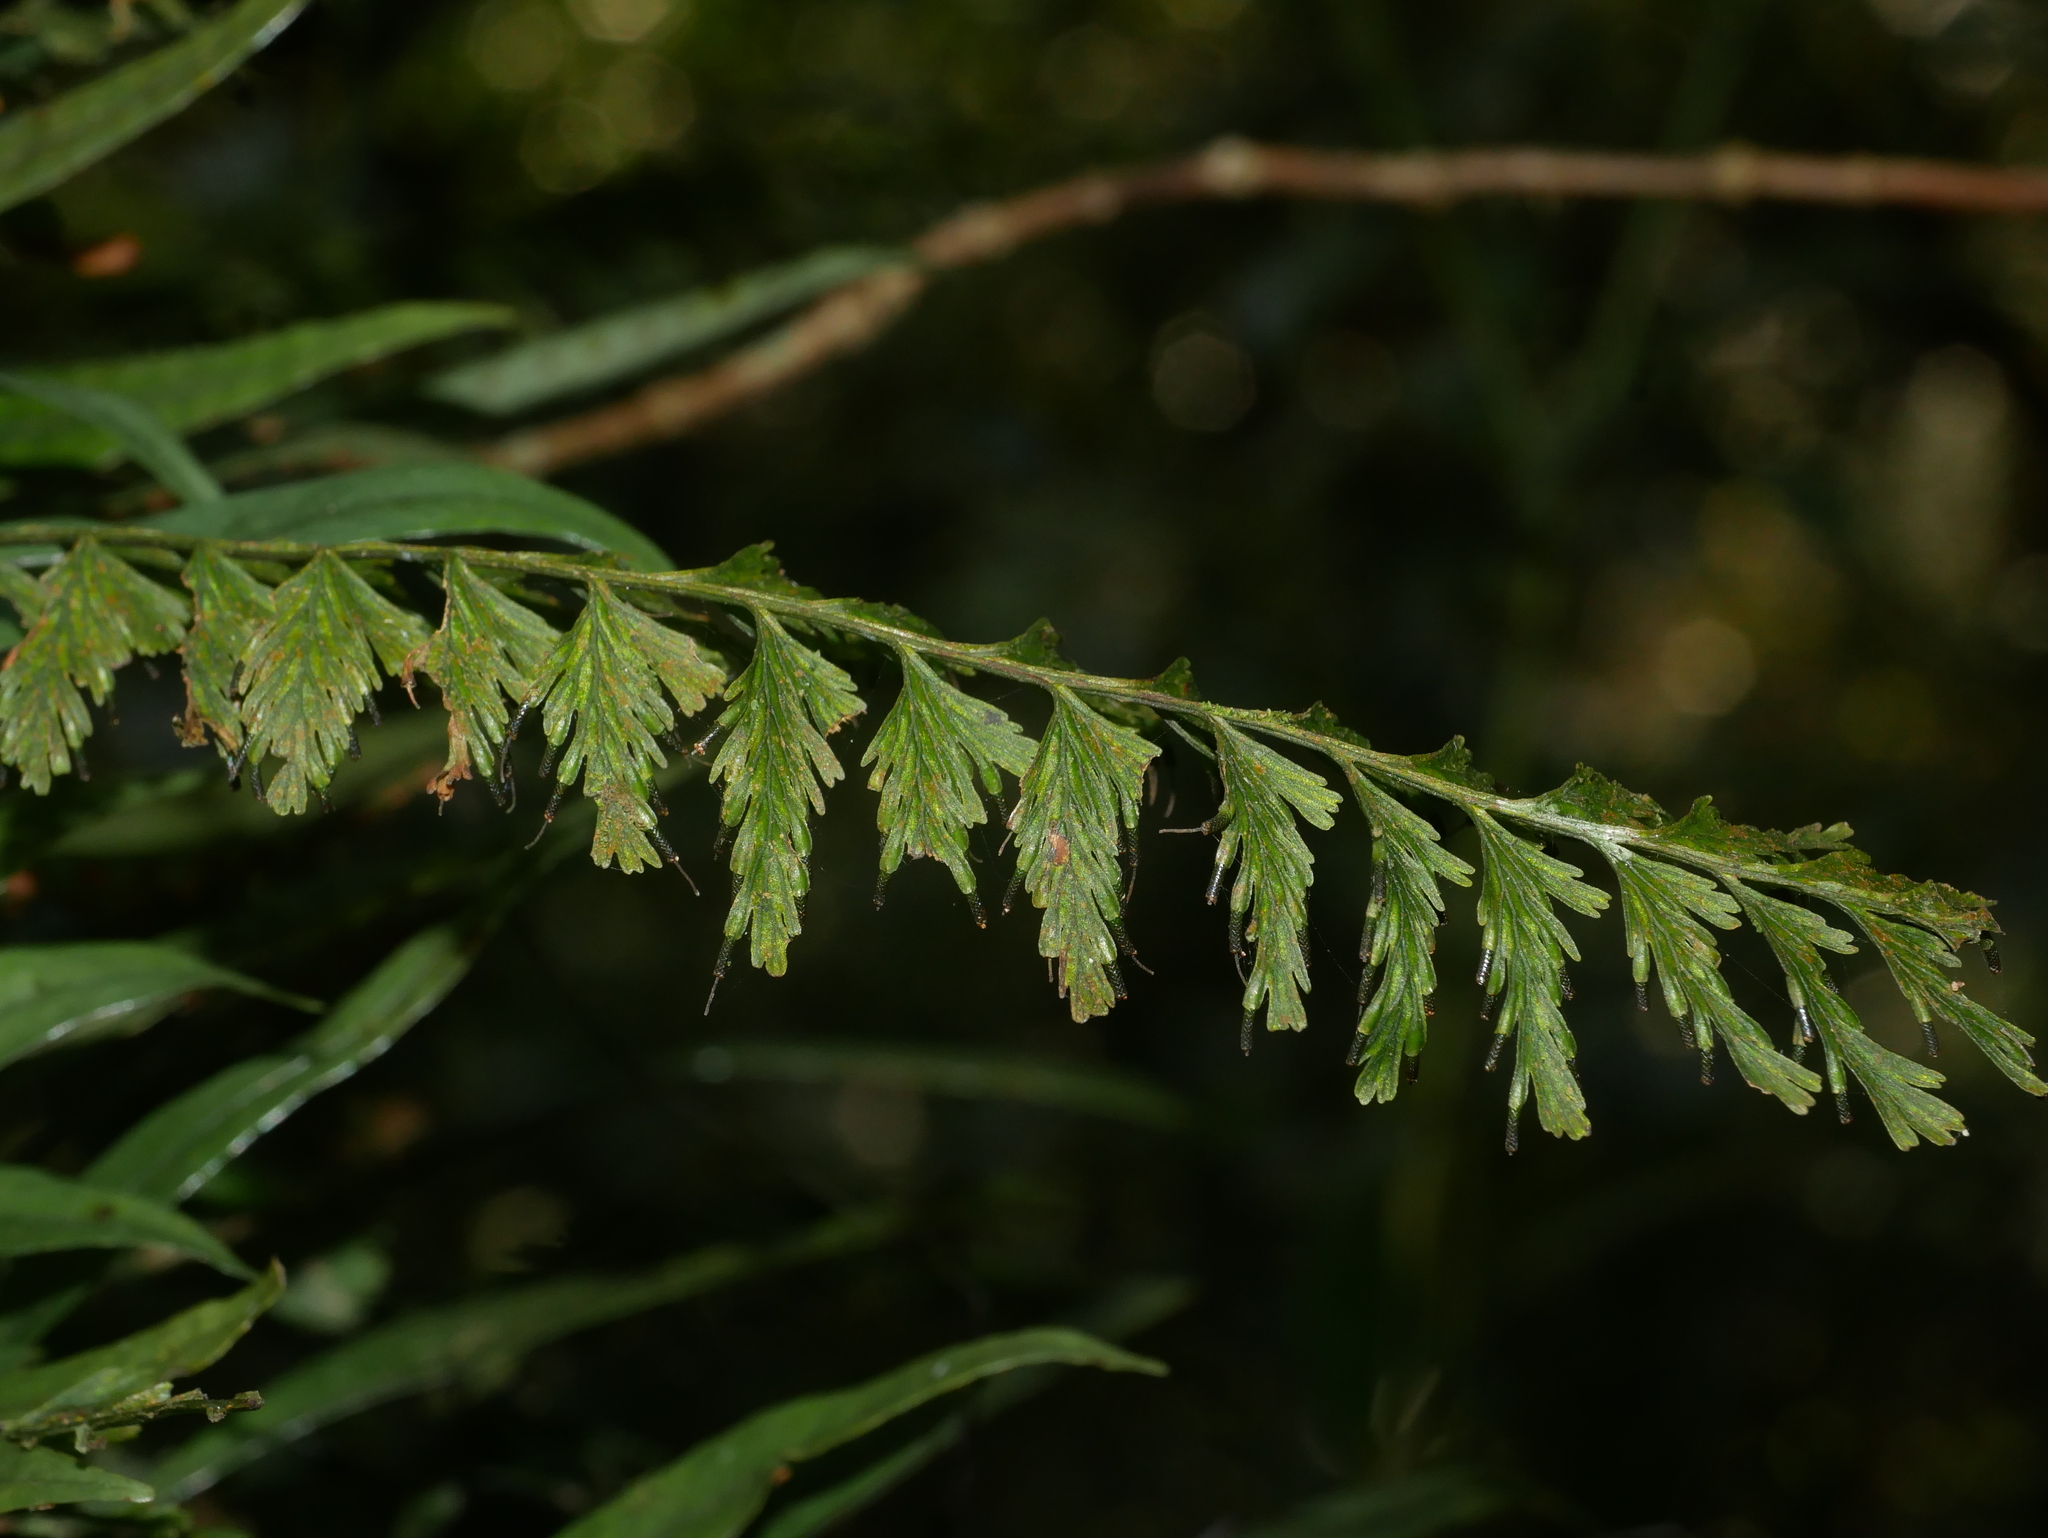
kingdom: Plantae
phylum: Tracheophyta
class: Polypodiopsida
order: Hymenophyllales
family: Hymenophyllaceae
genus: Vandenboschia
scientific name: Vandenboschia auriculata
